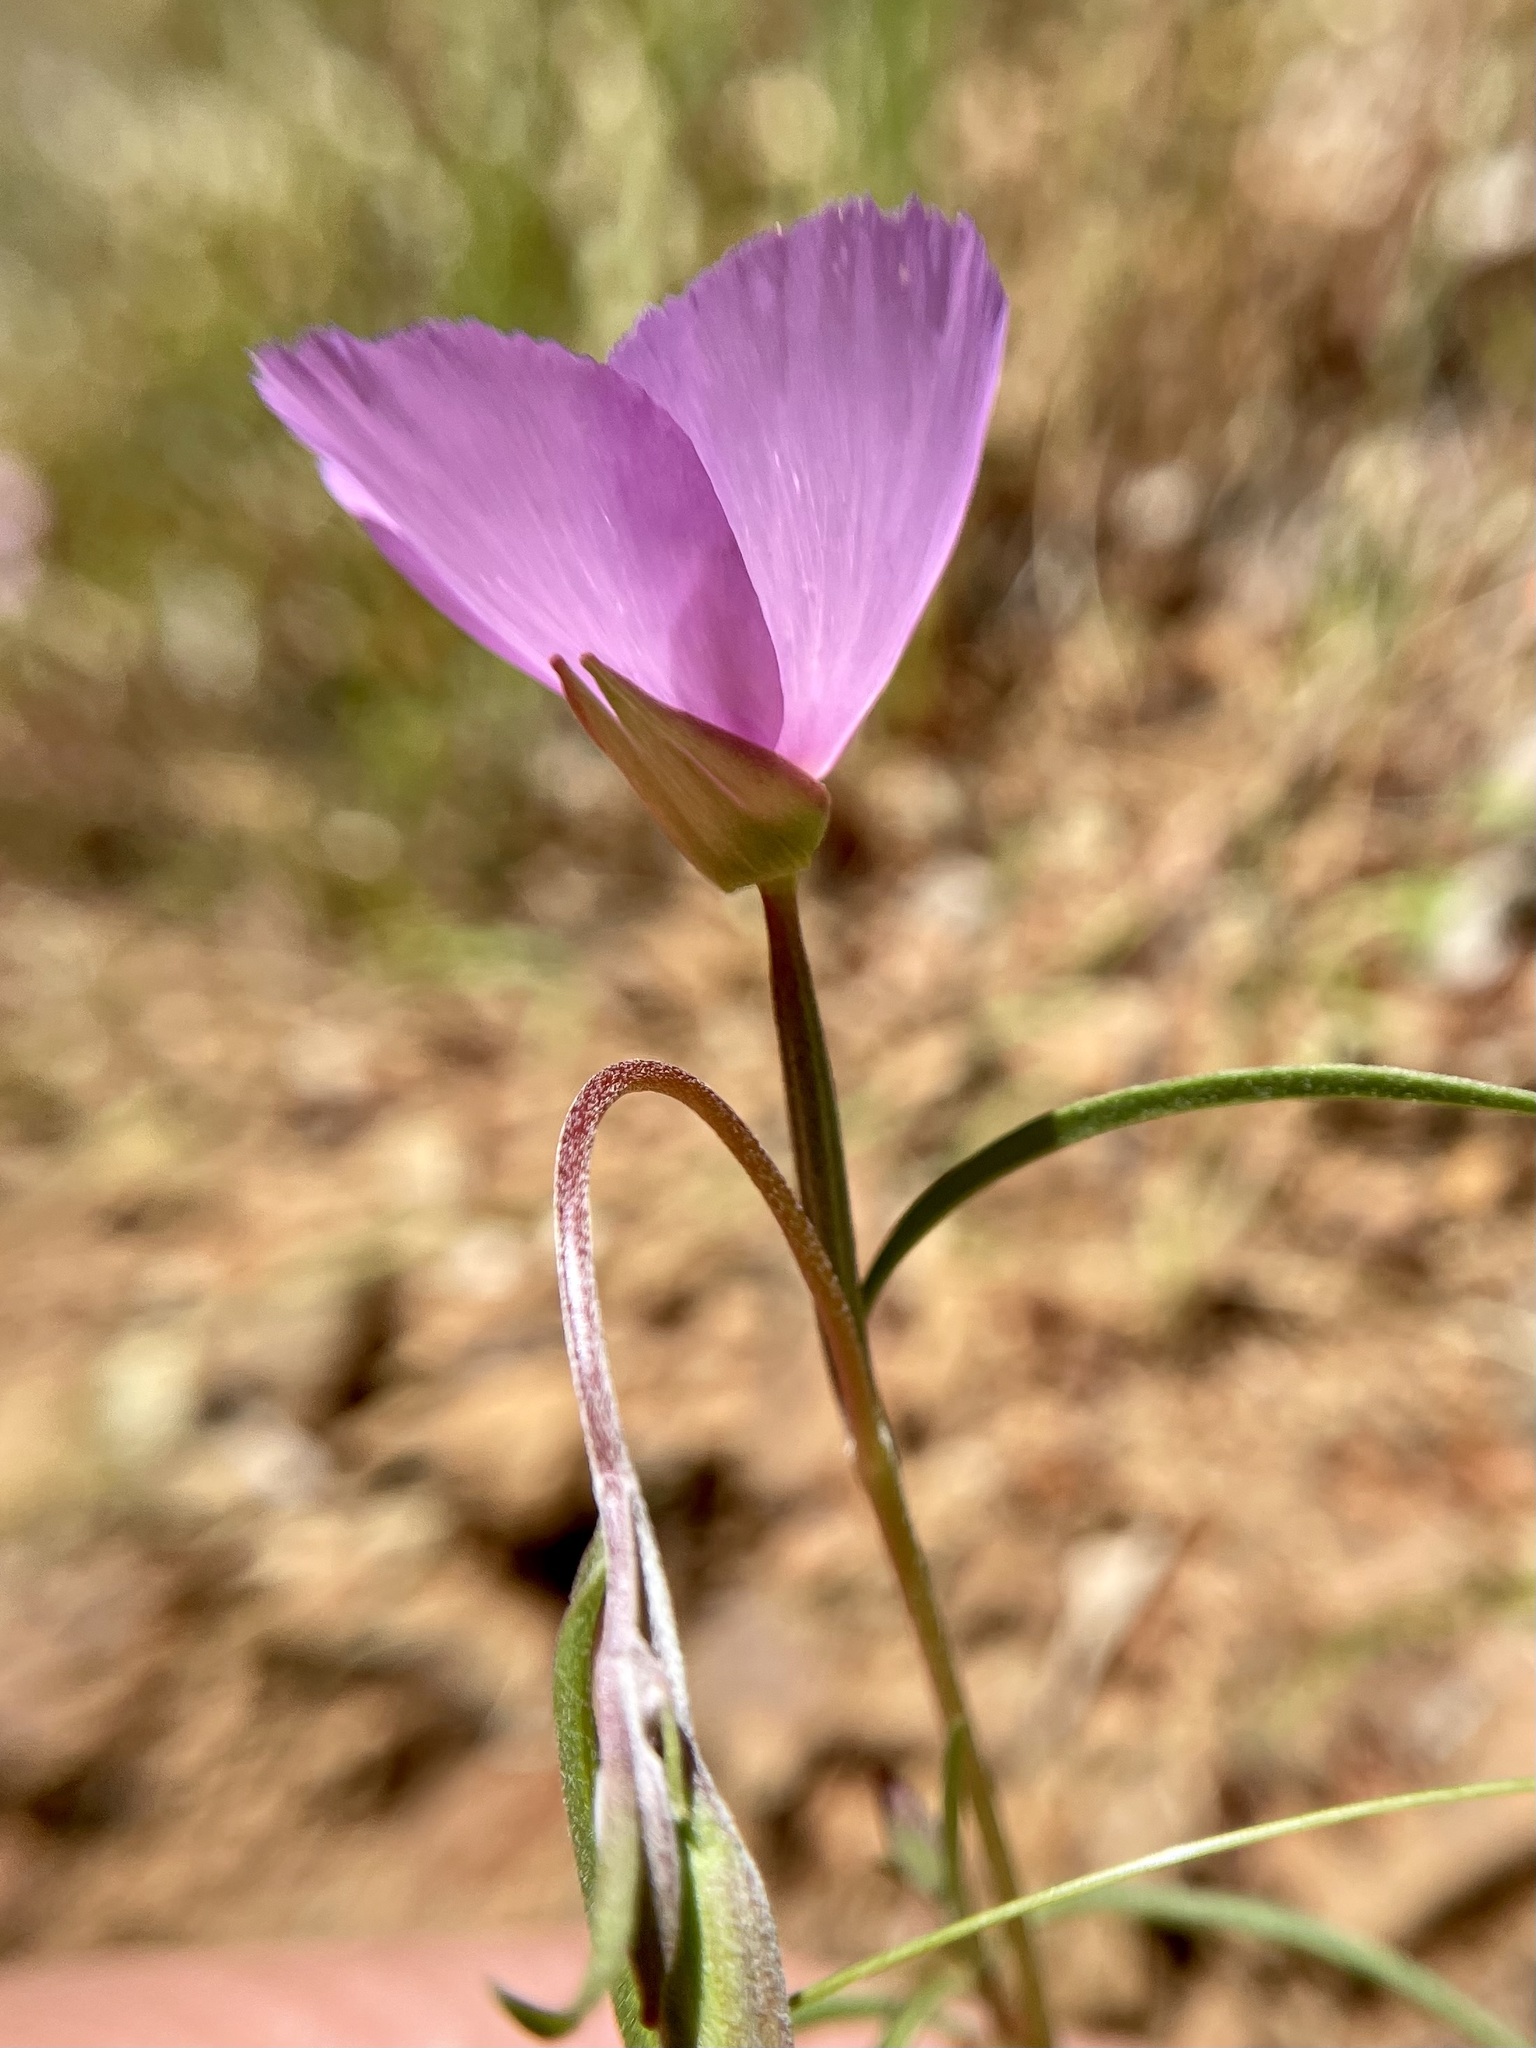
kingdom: Plantae
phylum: Tracheophyta
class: Magnoliopsida
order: Myrtales
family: Onagraceae
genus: Clarkia
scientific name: Clarkia gracilis
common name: Graceful clarkia
